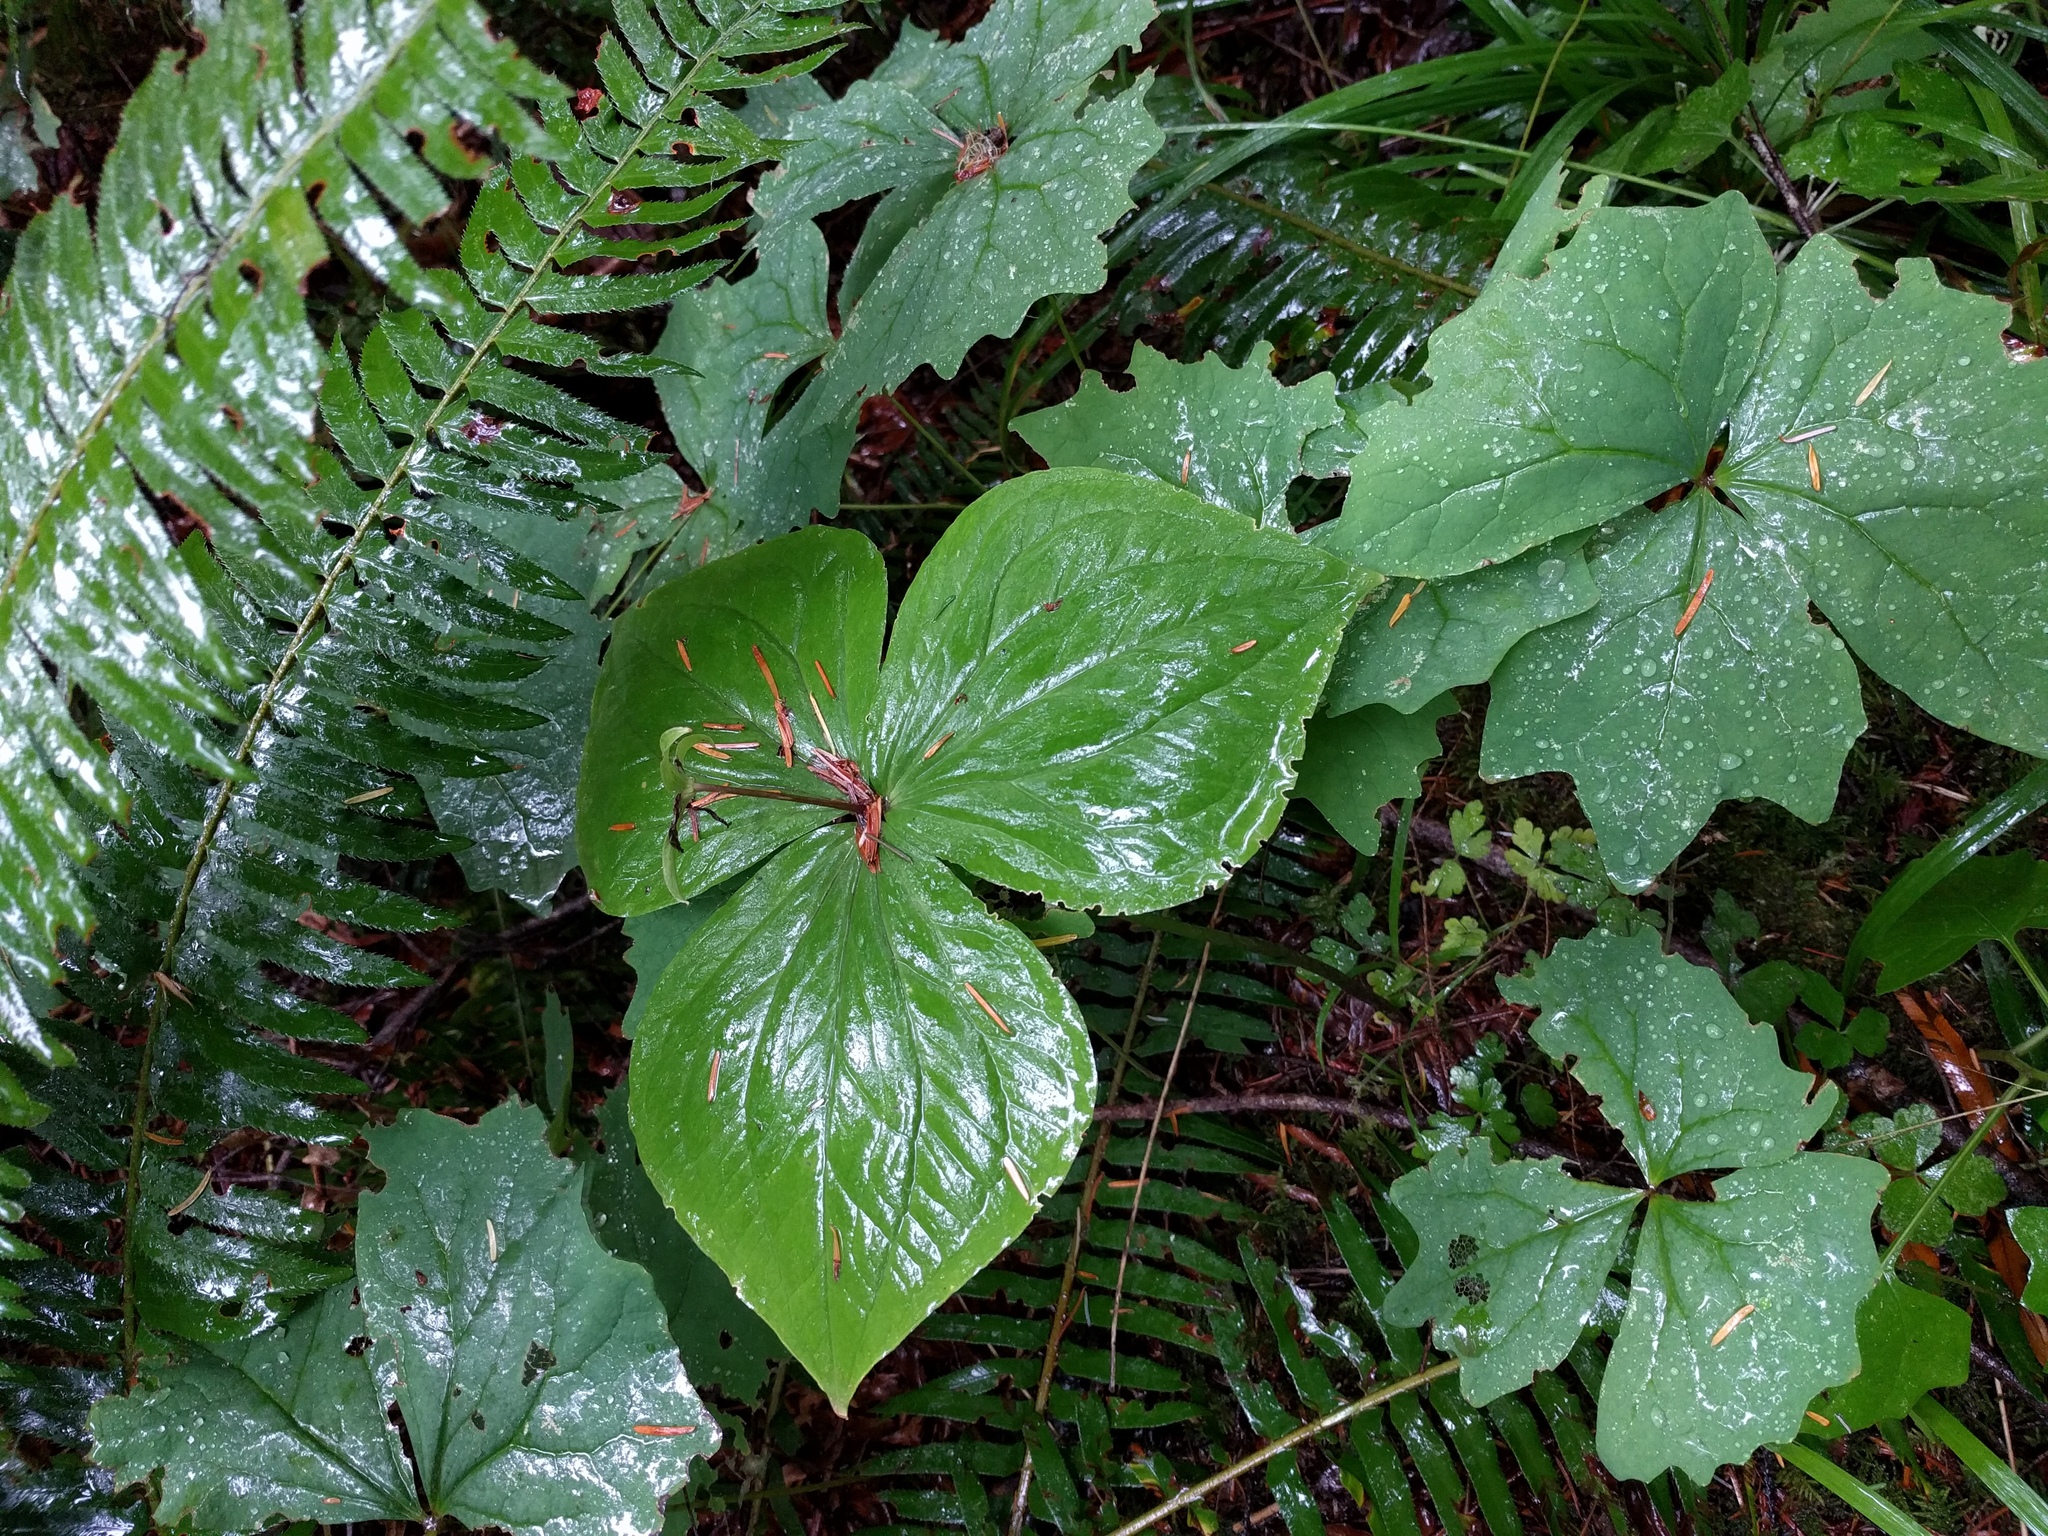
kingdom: Plantae
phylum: Tracheophyta
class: Liliopsida
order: Liliales
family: Melanthiaceae
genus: Trillium
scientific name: Trillium ovatum
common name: Pacific trillium
